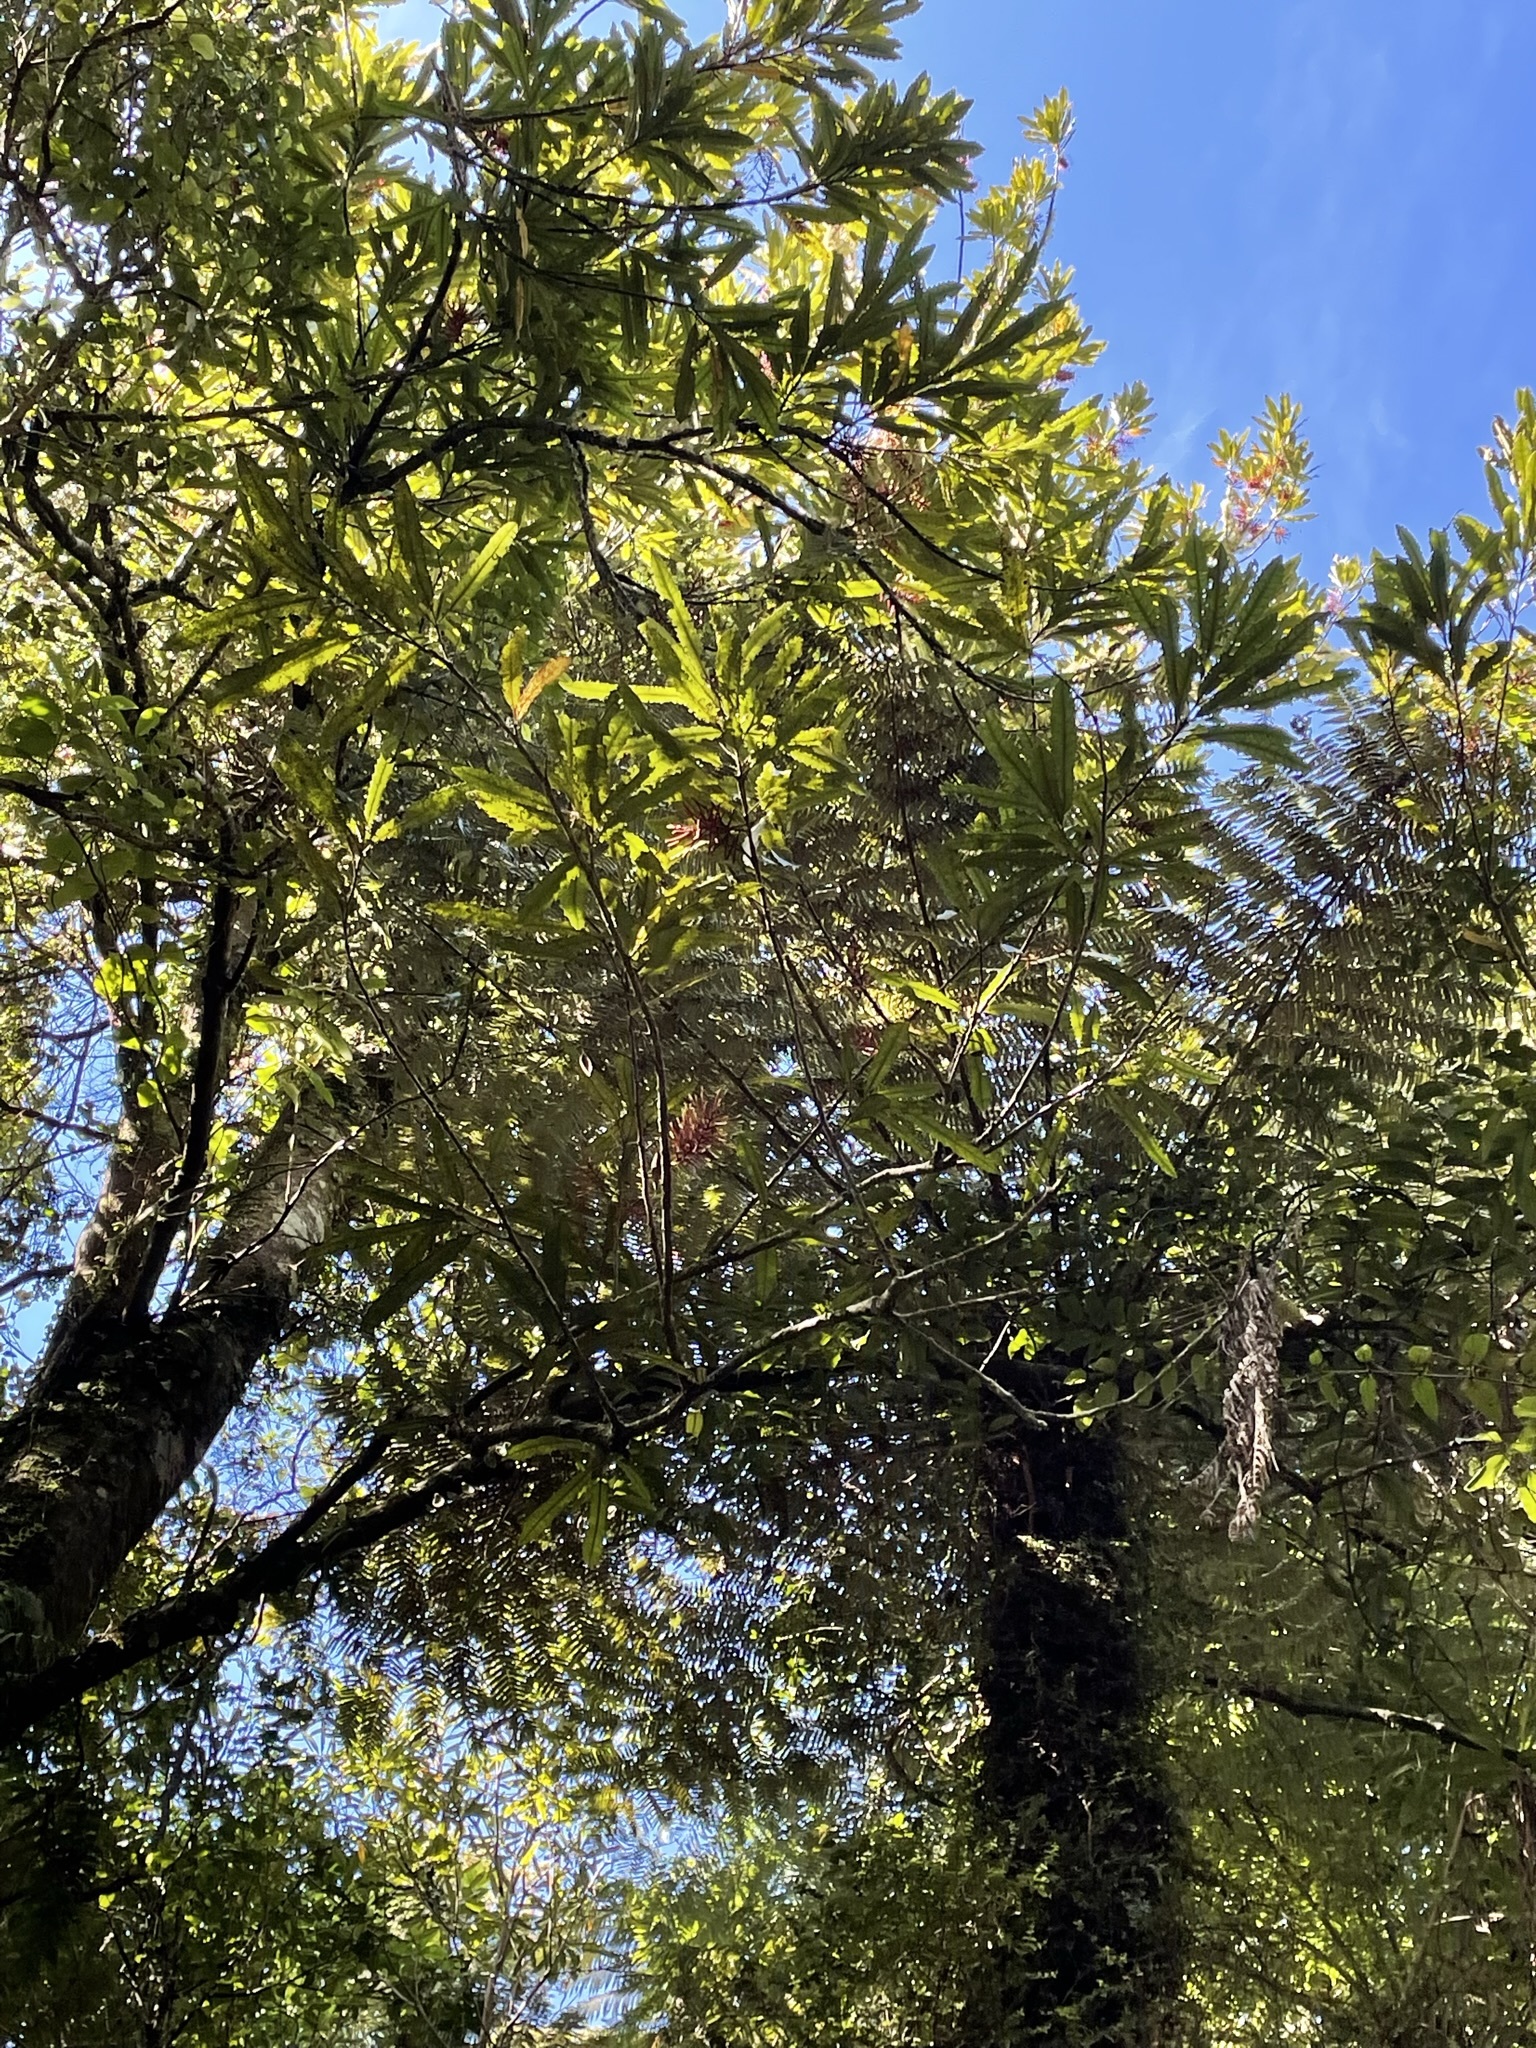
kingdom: Plantae
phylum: Tracheophyta
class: Magnoliopsida
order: Proteales
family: Proteaceae
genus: Knightia
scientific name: Knightia excelsa
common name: New zealand-honeysuckle
